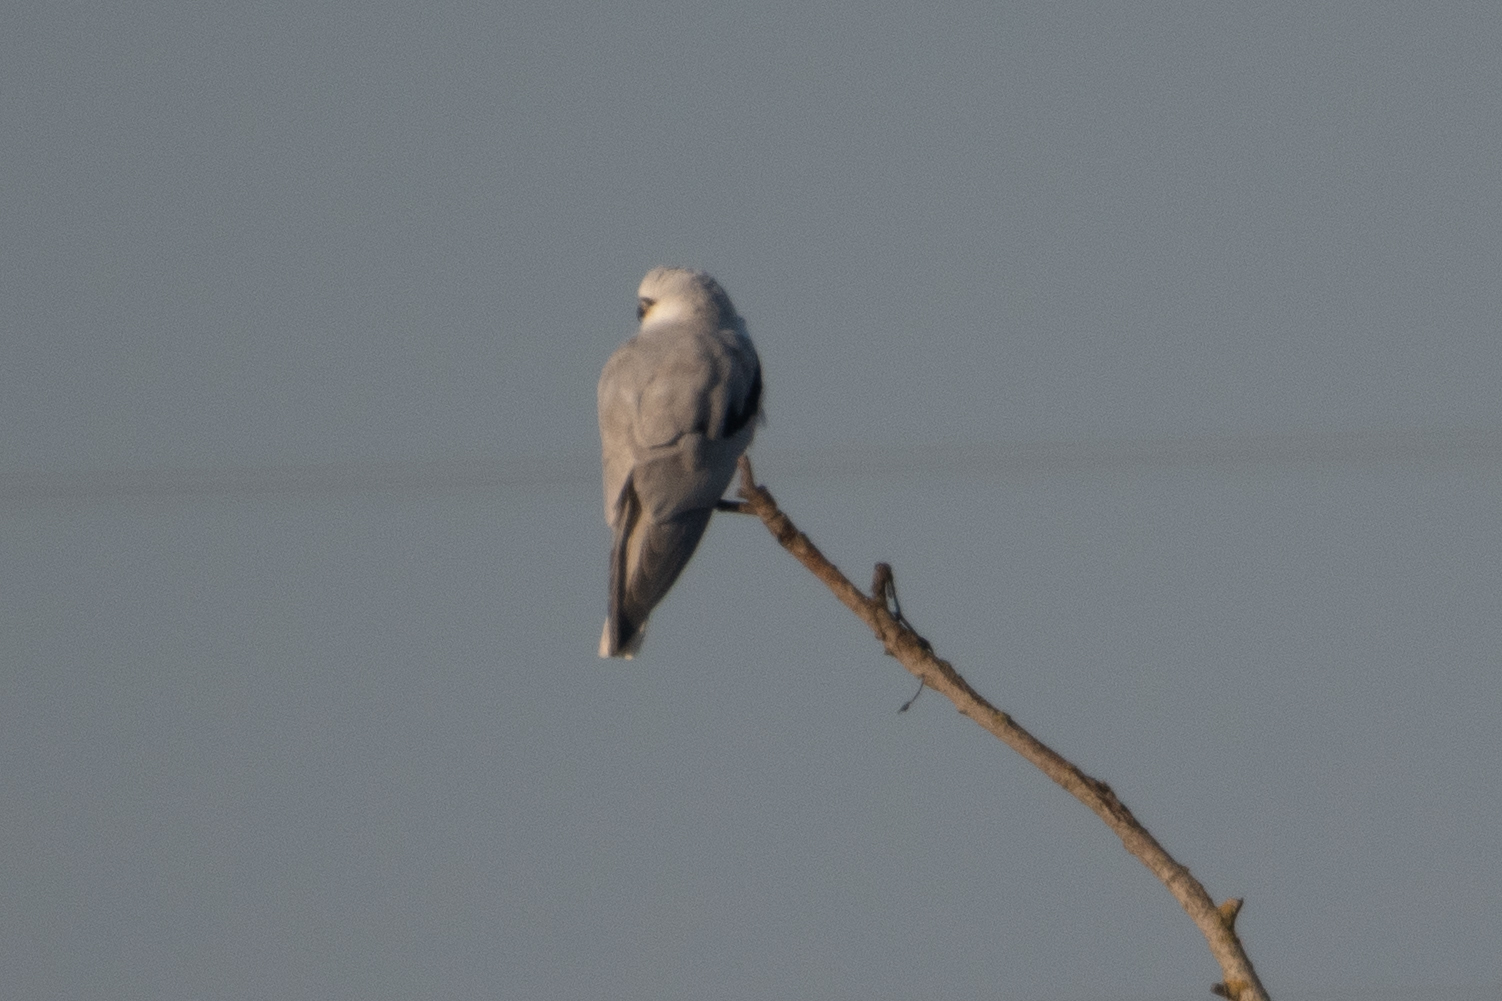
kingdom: Animalia
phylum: Chordata
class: Aves
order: Accipitriformes
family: Accipitridae
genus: Elanus
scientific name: Elanus leucurus
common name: White-tailed kite
